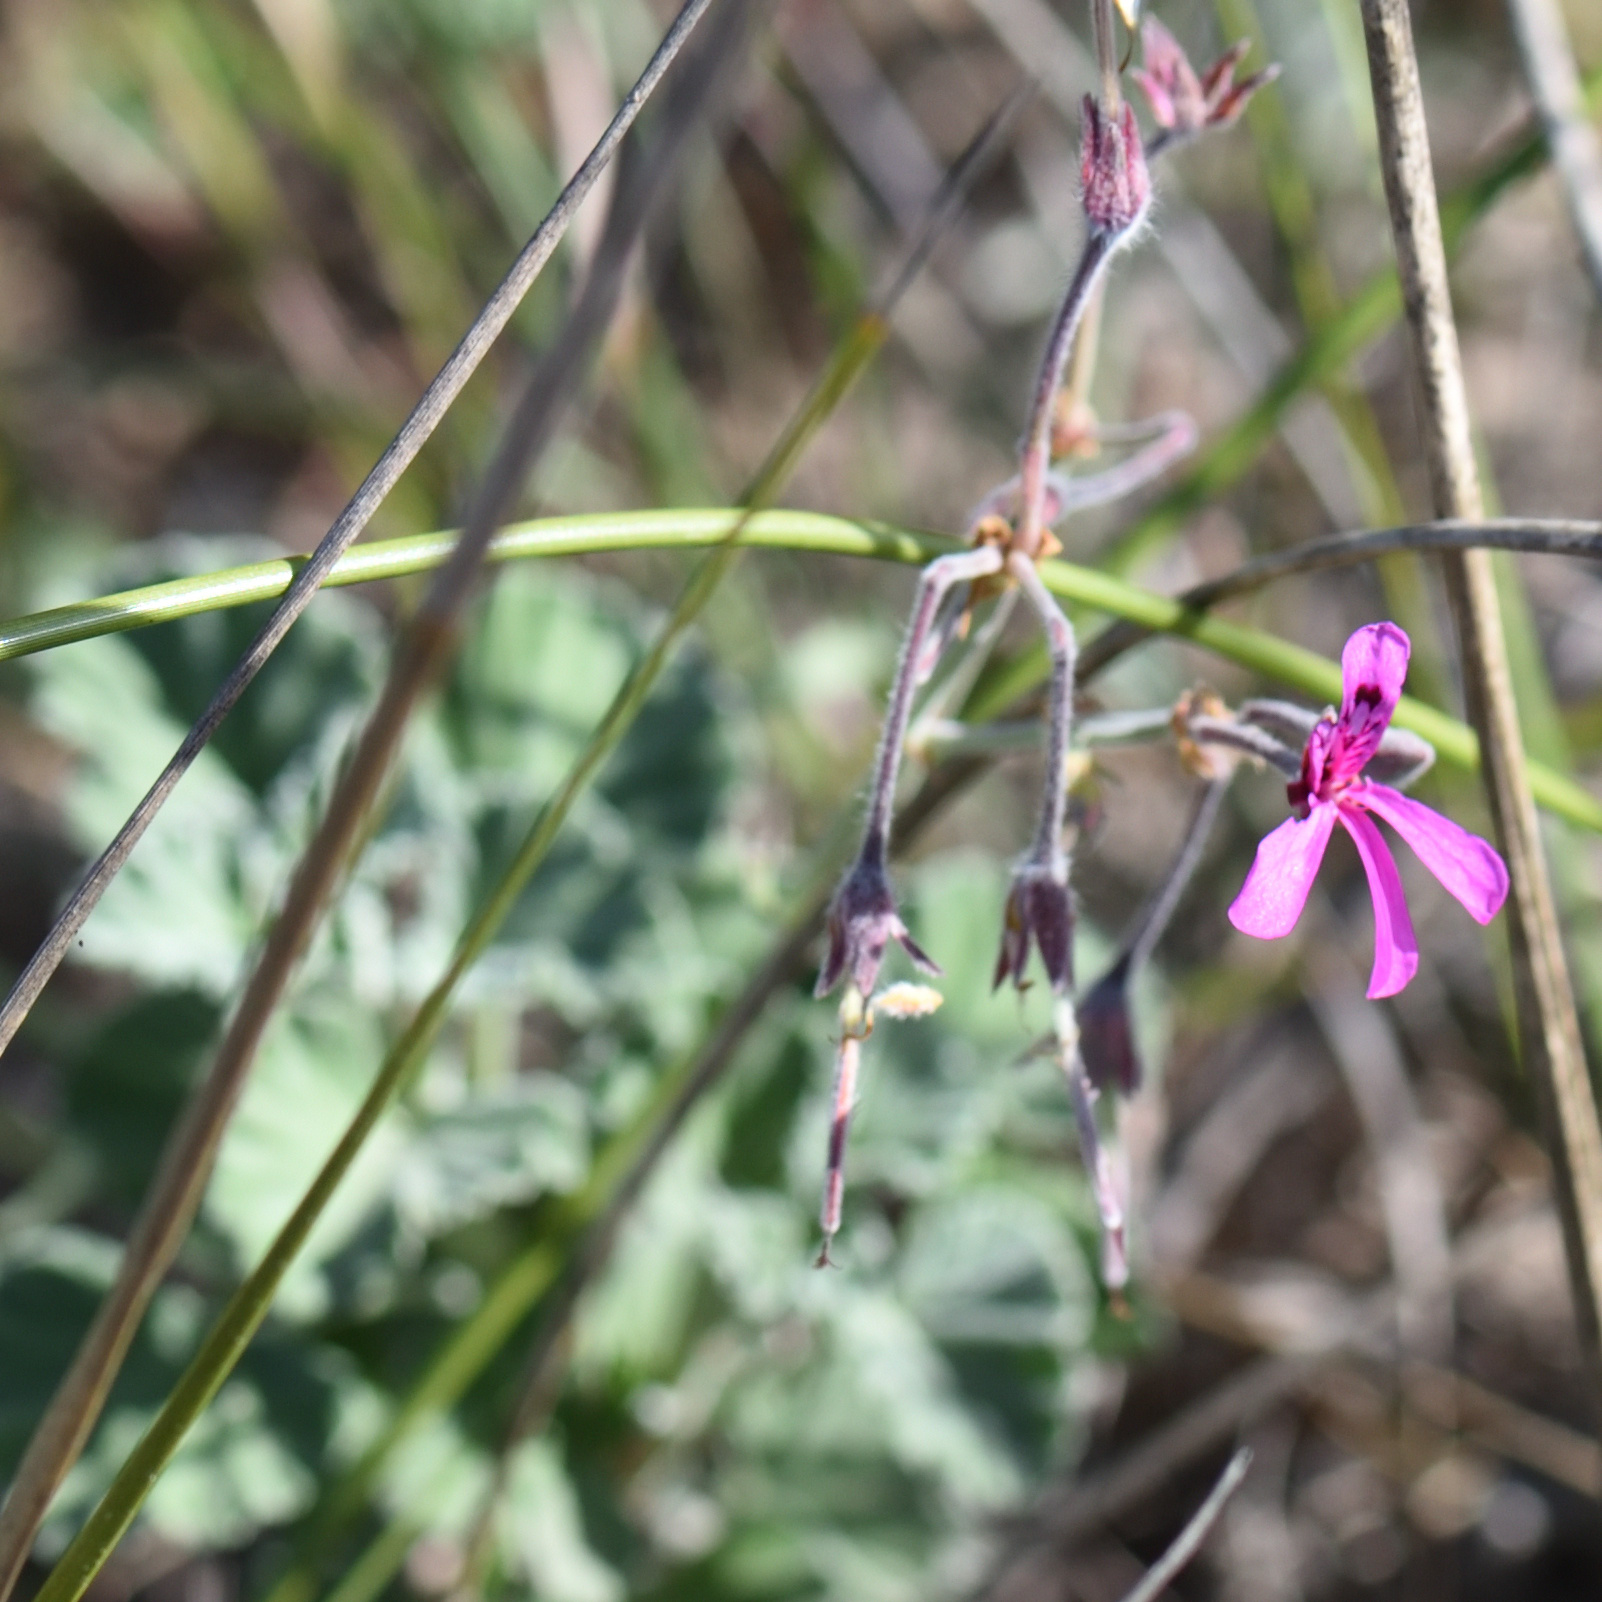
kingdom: Plantae
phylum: Tracheophyta
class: Magnoliopsida
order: Geraniales
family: Geraniaceae
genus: Pelargonium
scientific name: Pelargonium reniforme
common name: Kidney-leaf pelargonium
